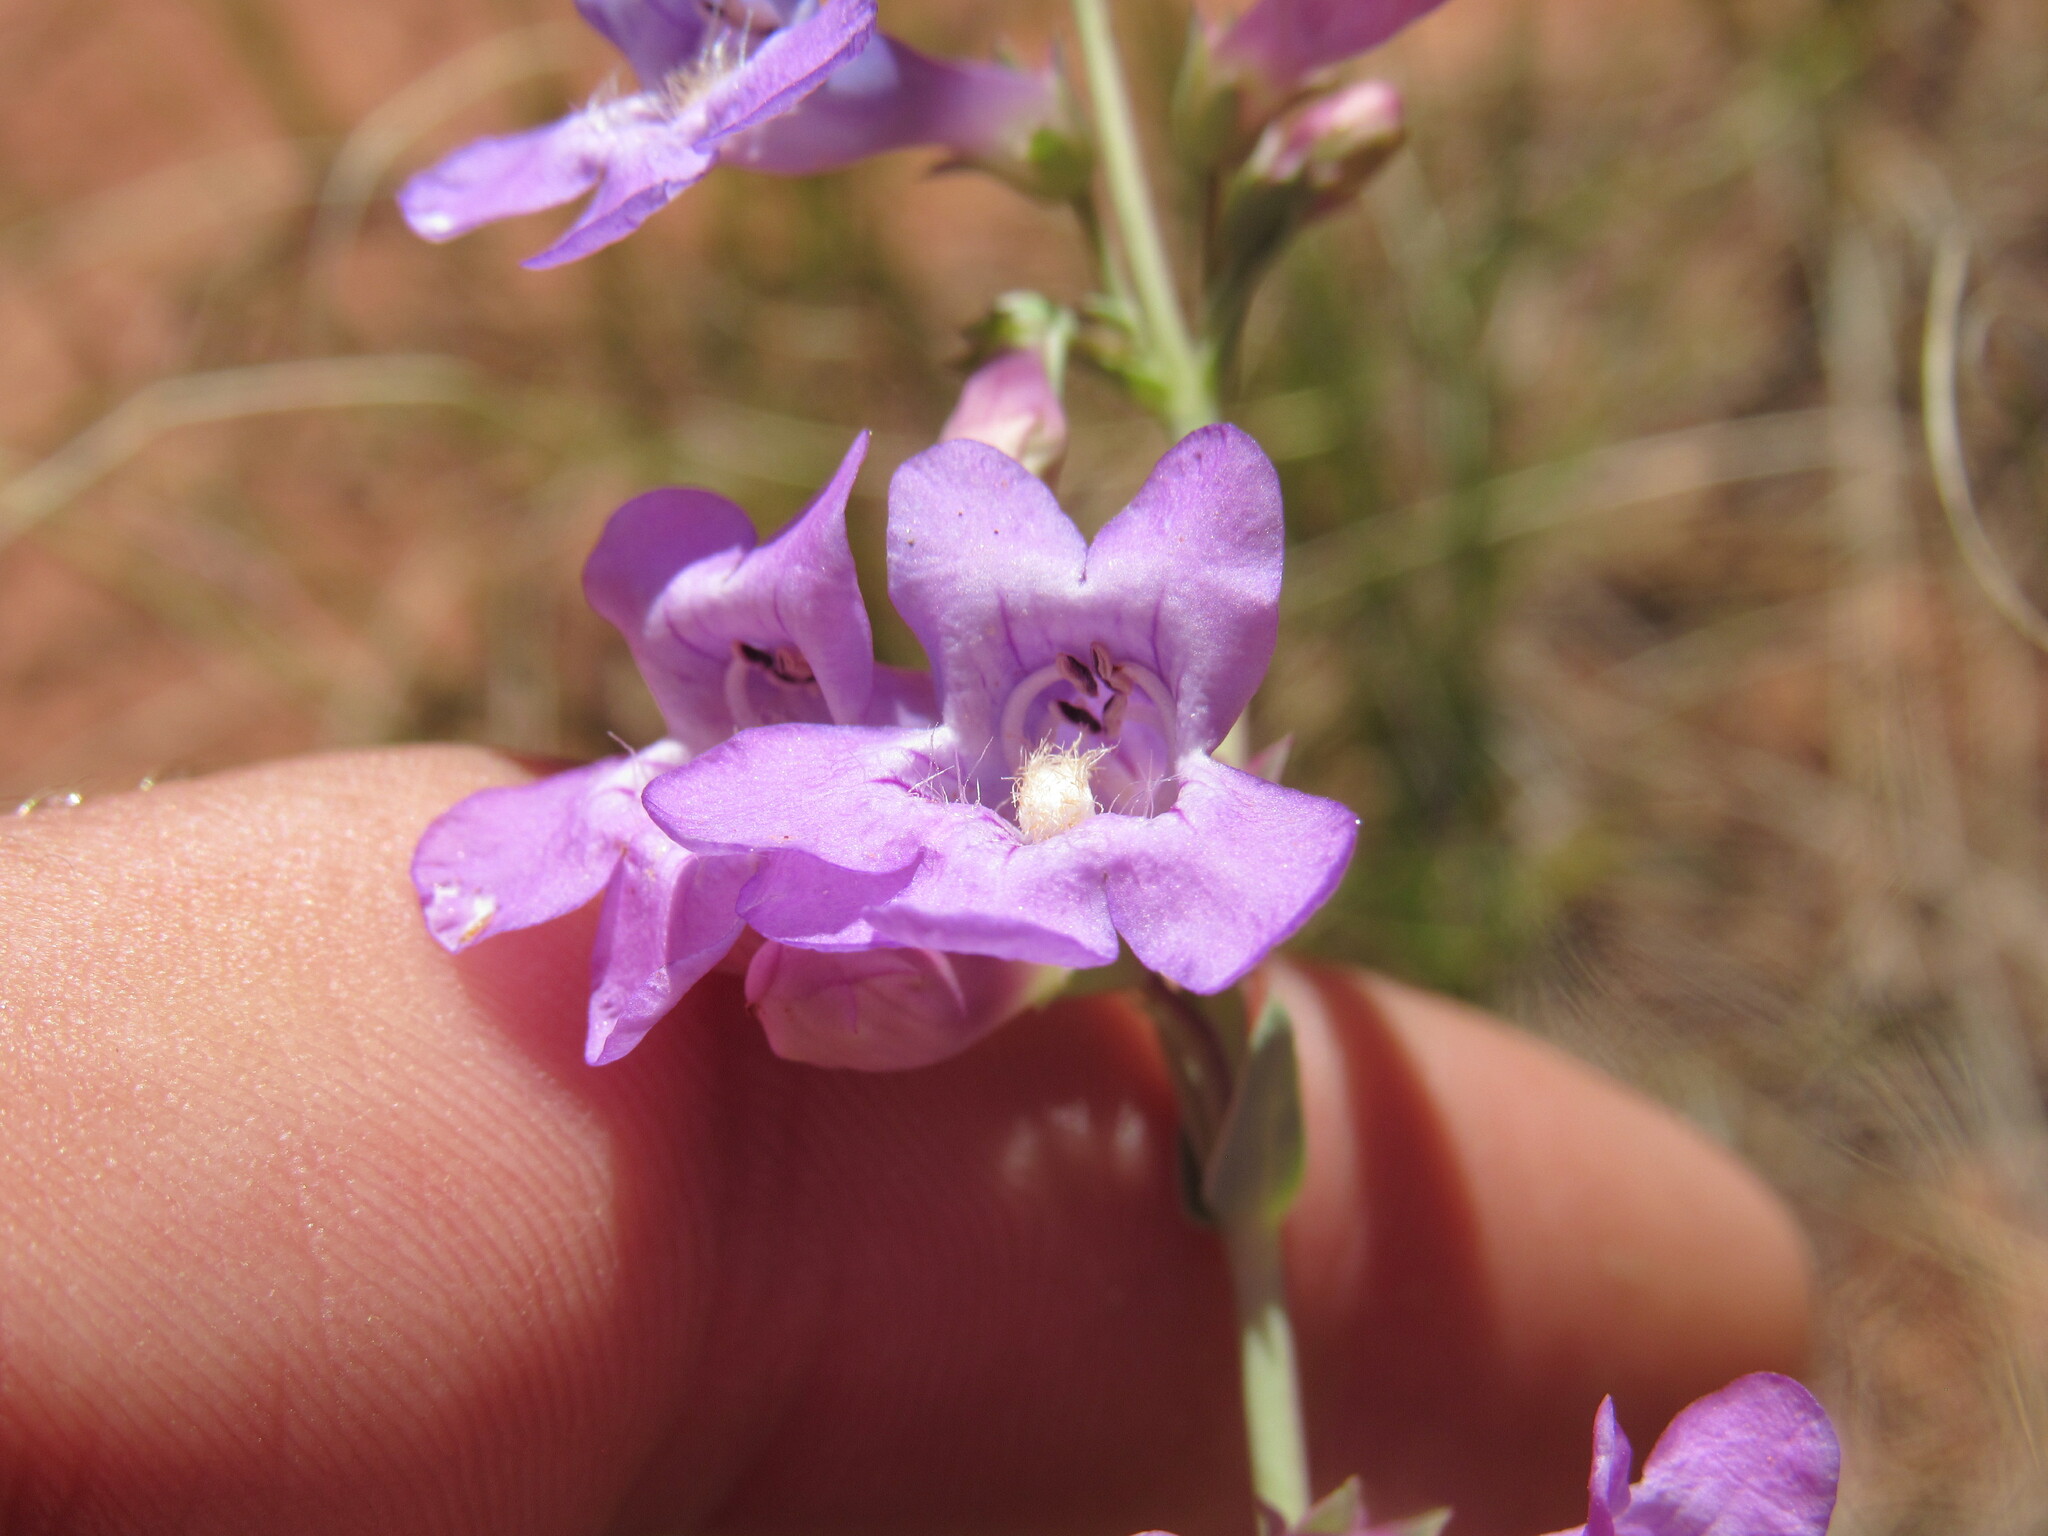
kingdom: Plantae
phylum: Tracheophyta
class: Magnoliopsida
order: Lamiales
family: Plantaginaceae
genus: Penstemon
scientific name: Penstemon secundiflorus
